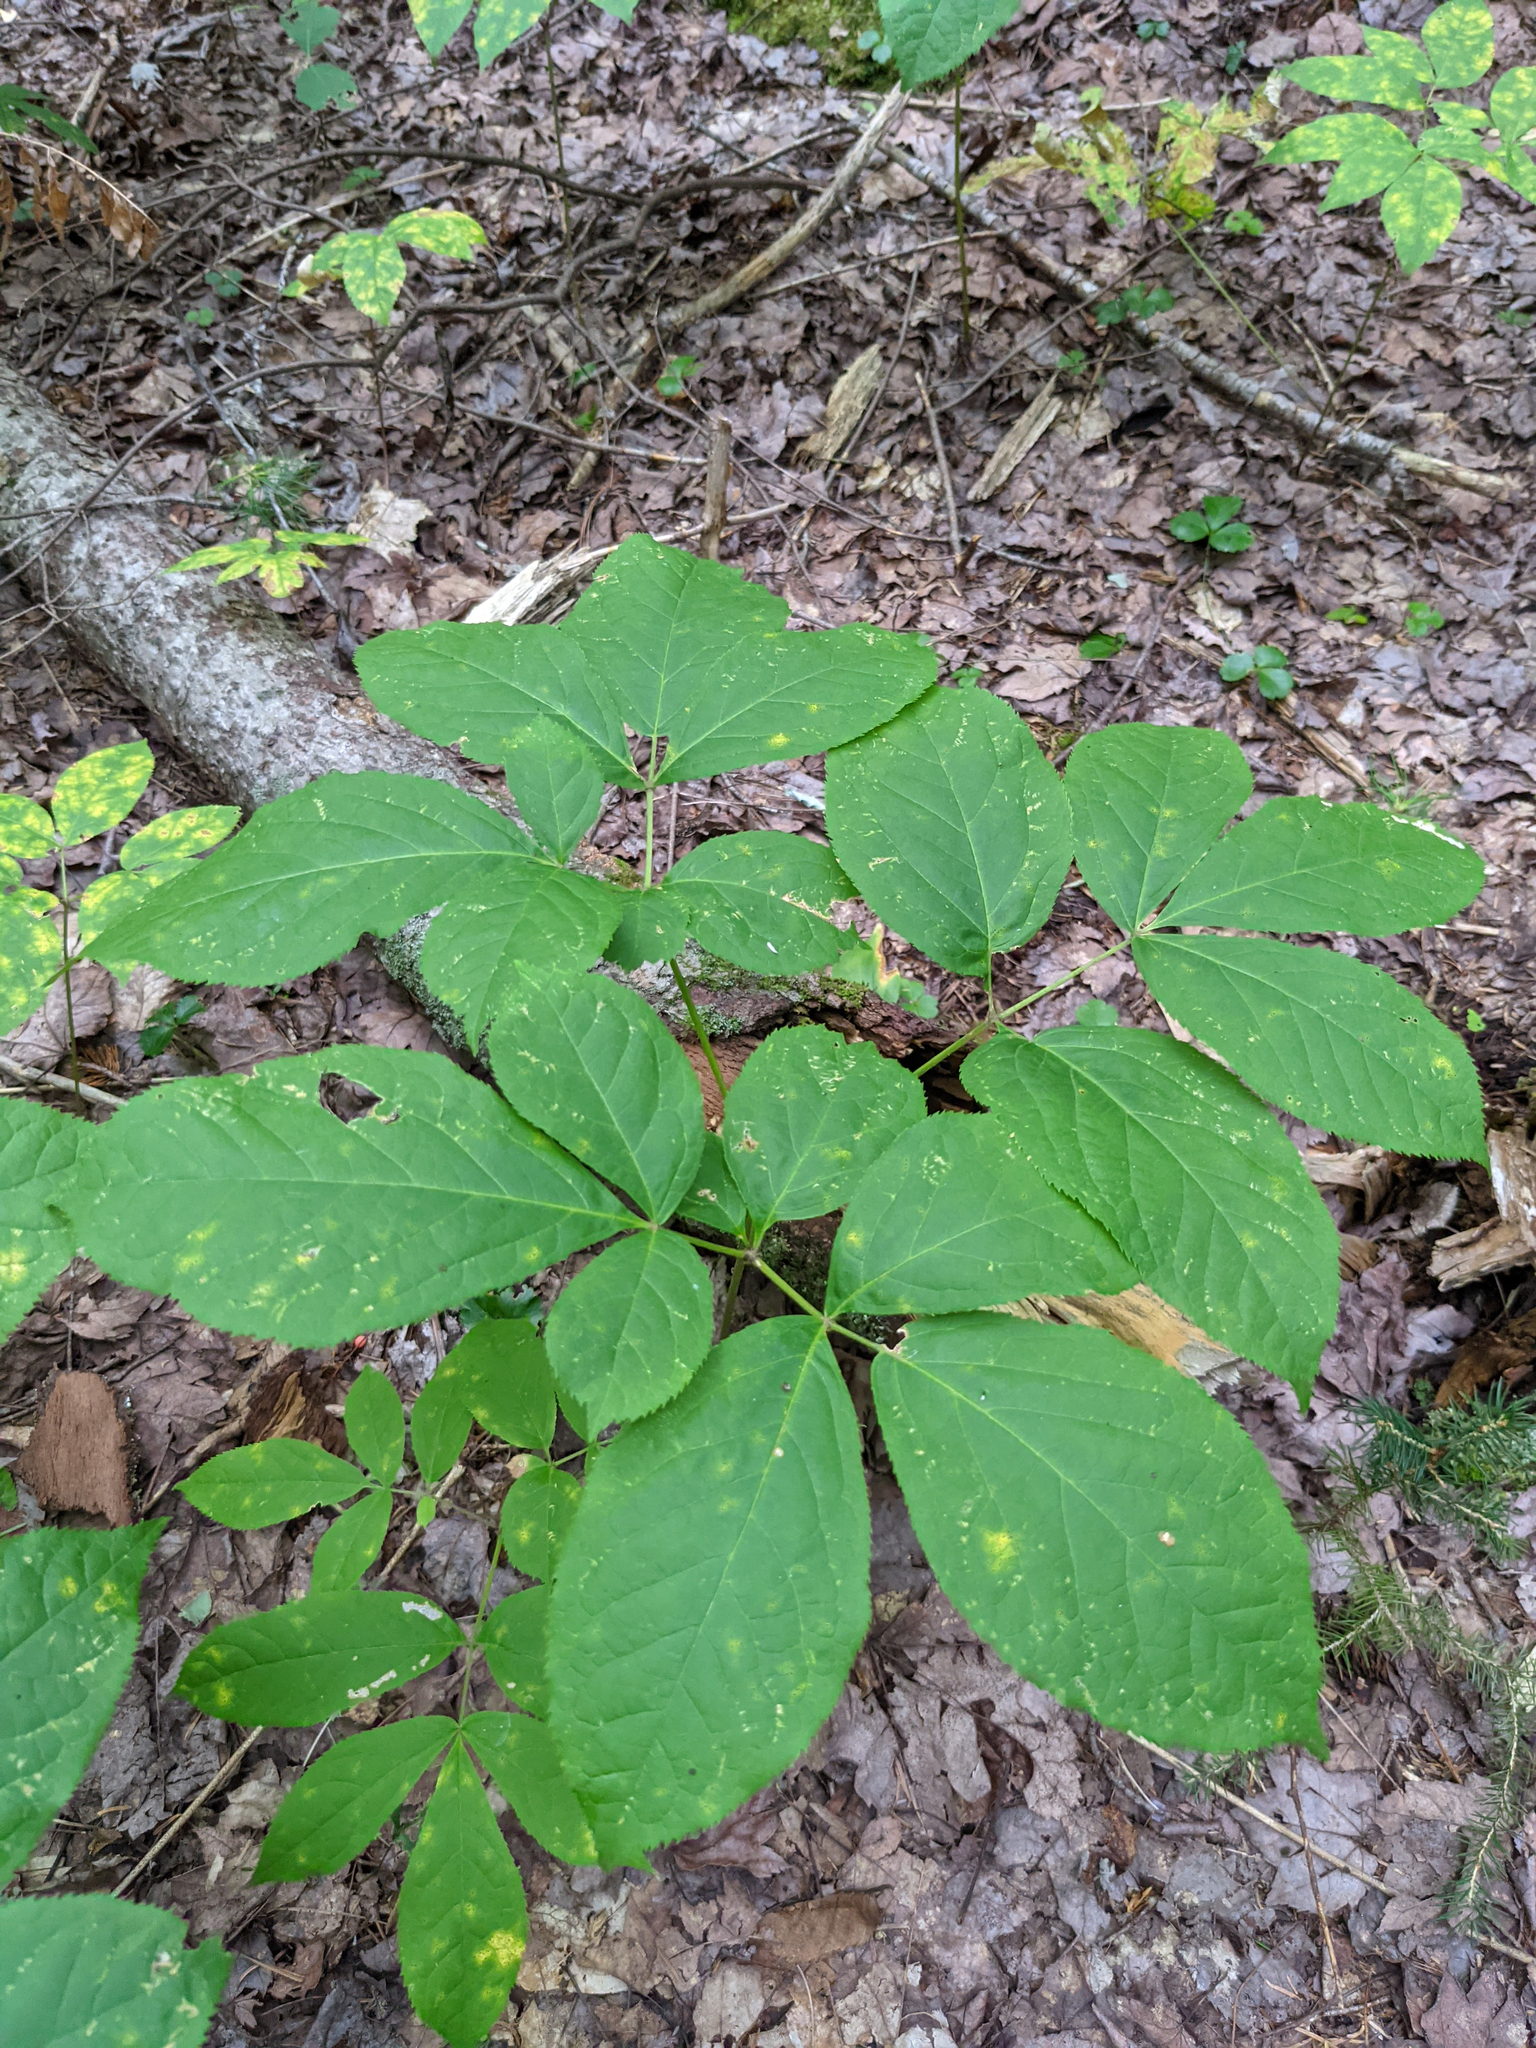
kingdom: Plantae
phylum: Tracheophyta
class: Magnoliopsida
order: Apiales
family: Araliaceae
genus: Aralia
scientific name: Aralia nudicaulis
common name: Wild sarsaparilla
